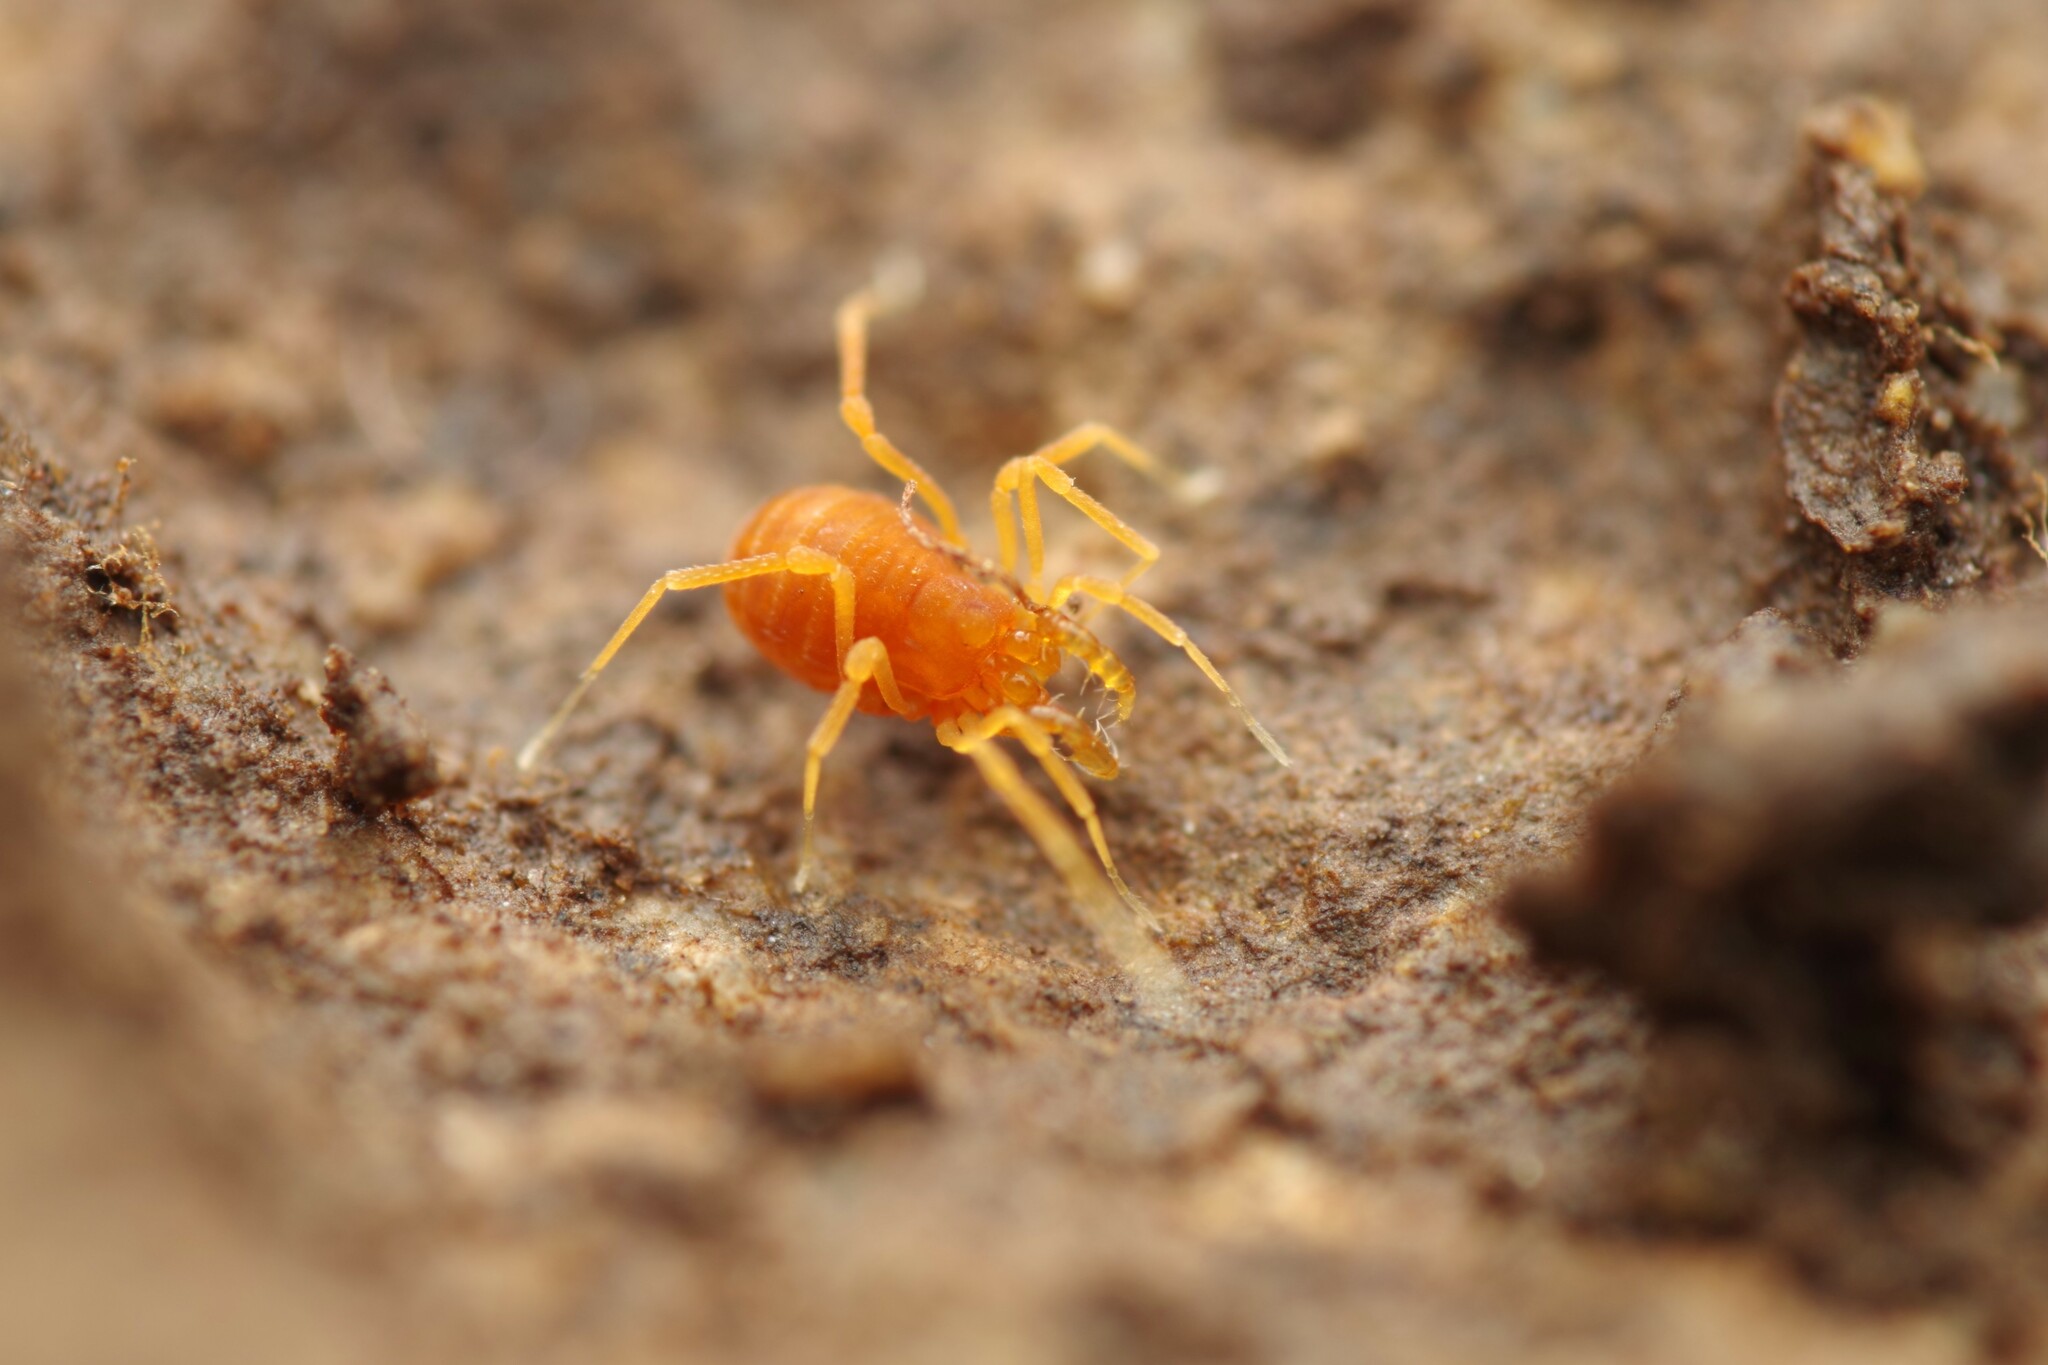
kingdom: Animalia
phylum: Arthropoda
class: Arachnida
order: Opiliones
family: Phalangodidae
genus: Scotolemon
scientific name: Scotolemon doriae
